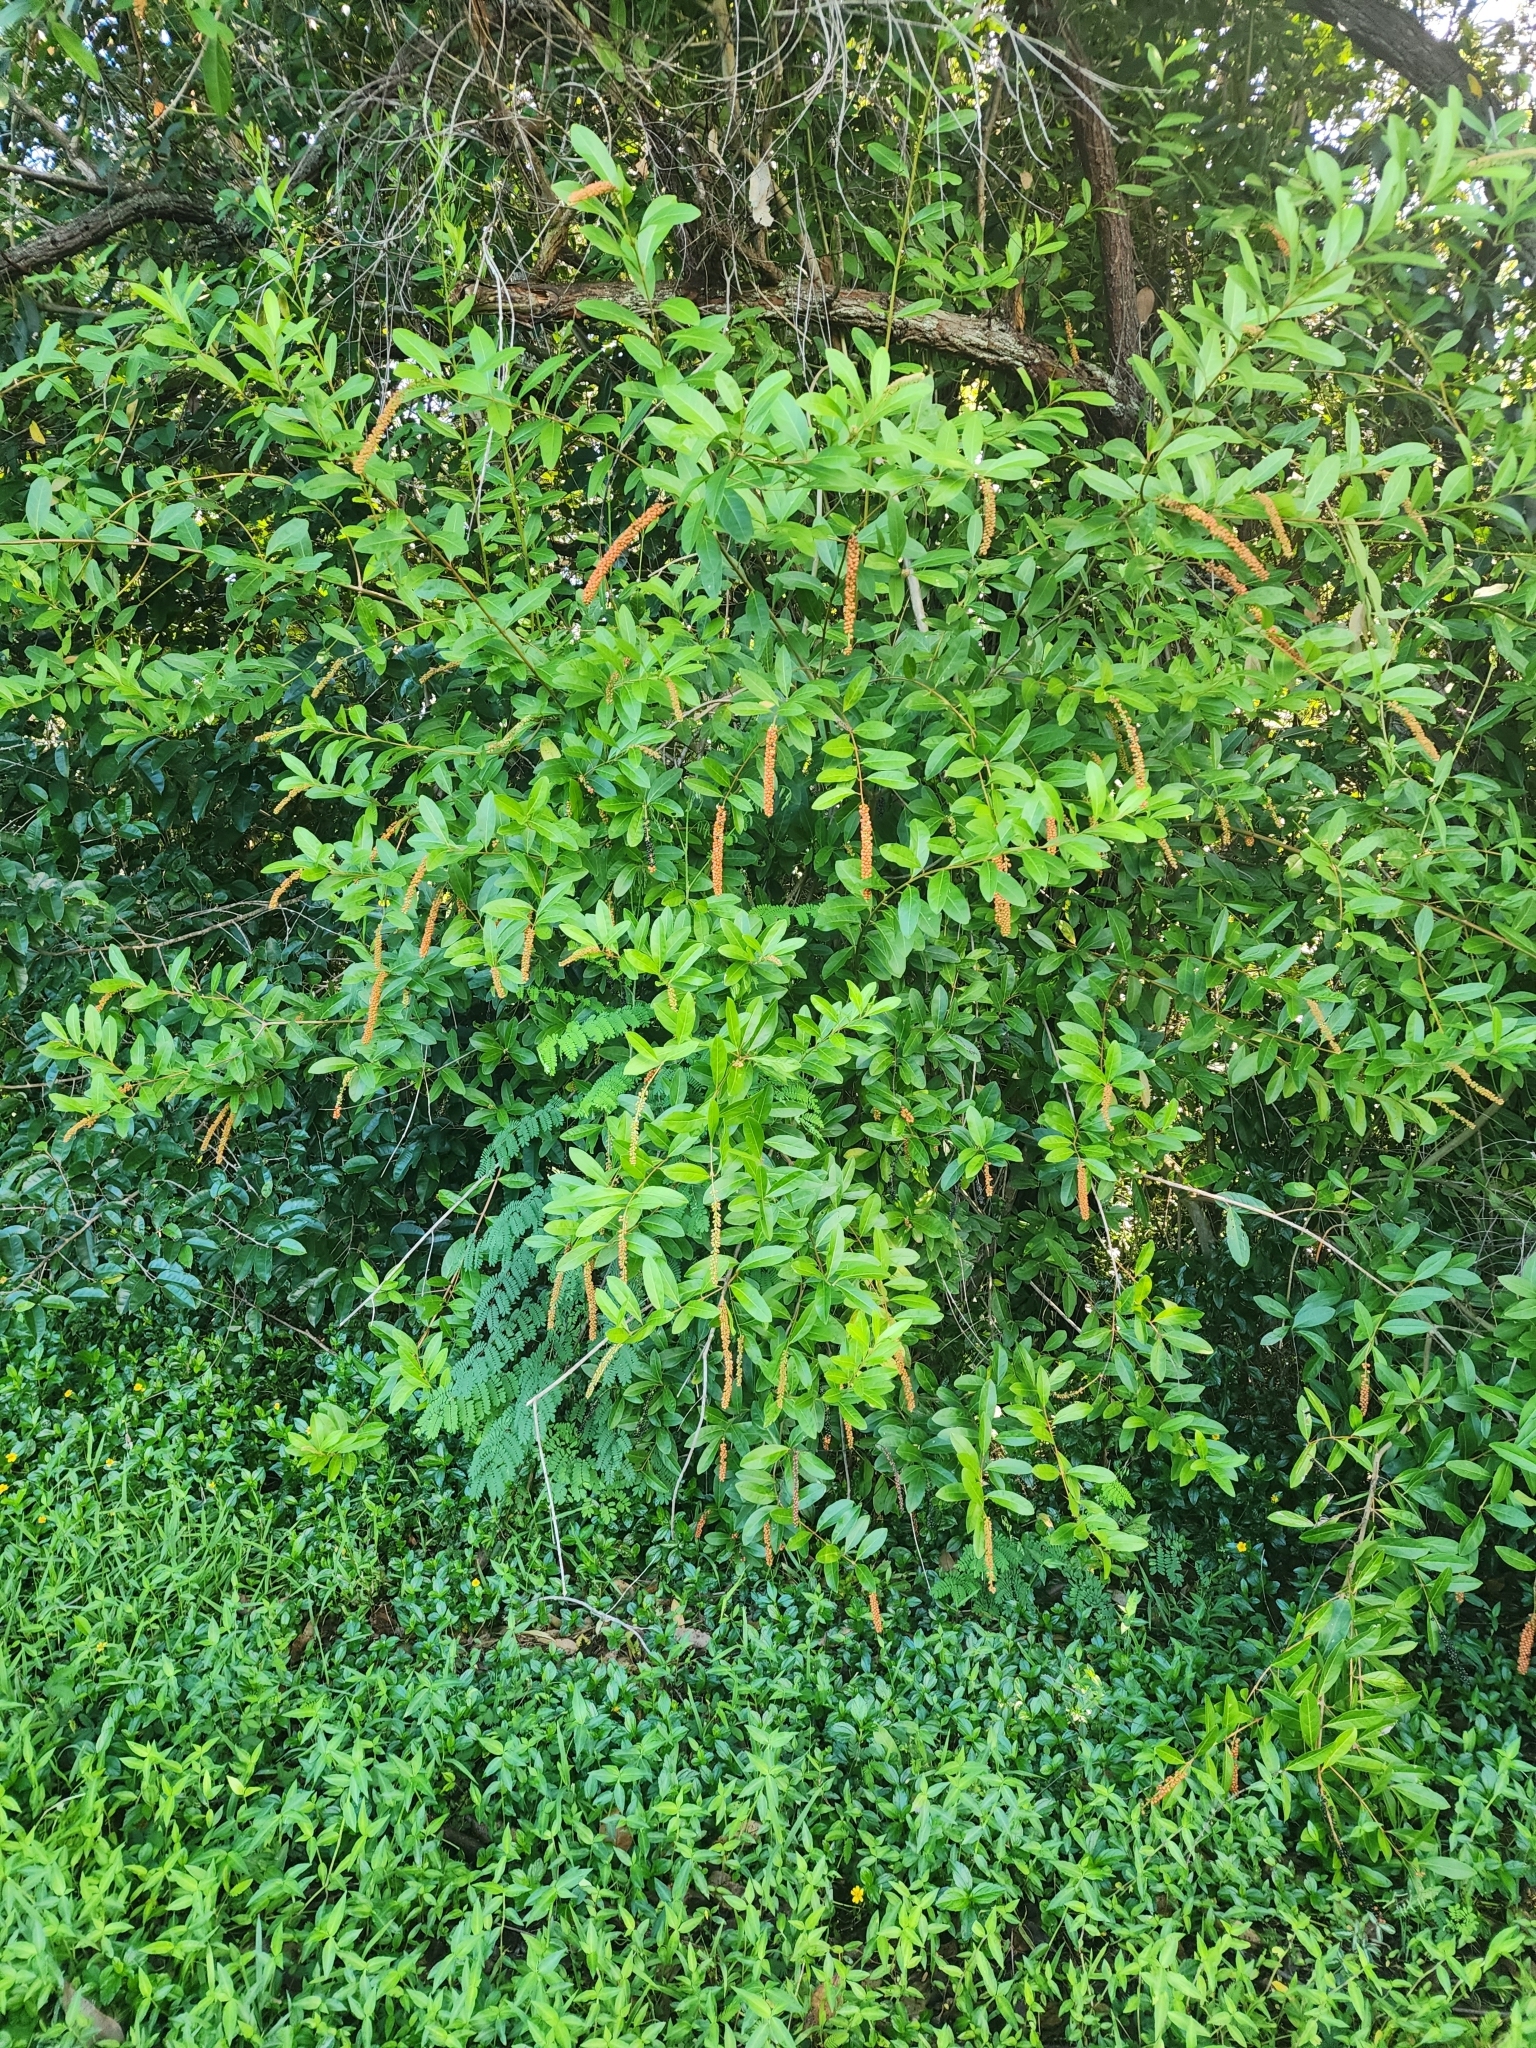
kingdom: Plantae
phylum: Tracheophyta
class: Magnoliopsida
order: Lamiales
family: Verbenaceae
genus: Citharexylum
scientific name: Citharexylum caudatum
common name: Fiddlewood
